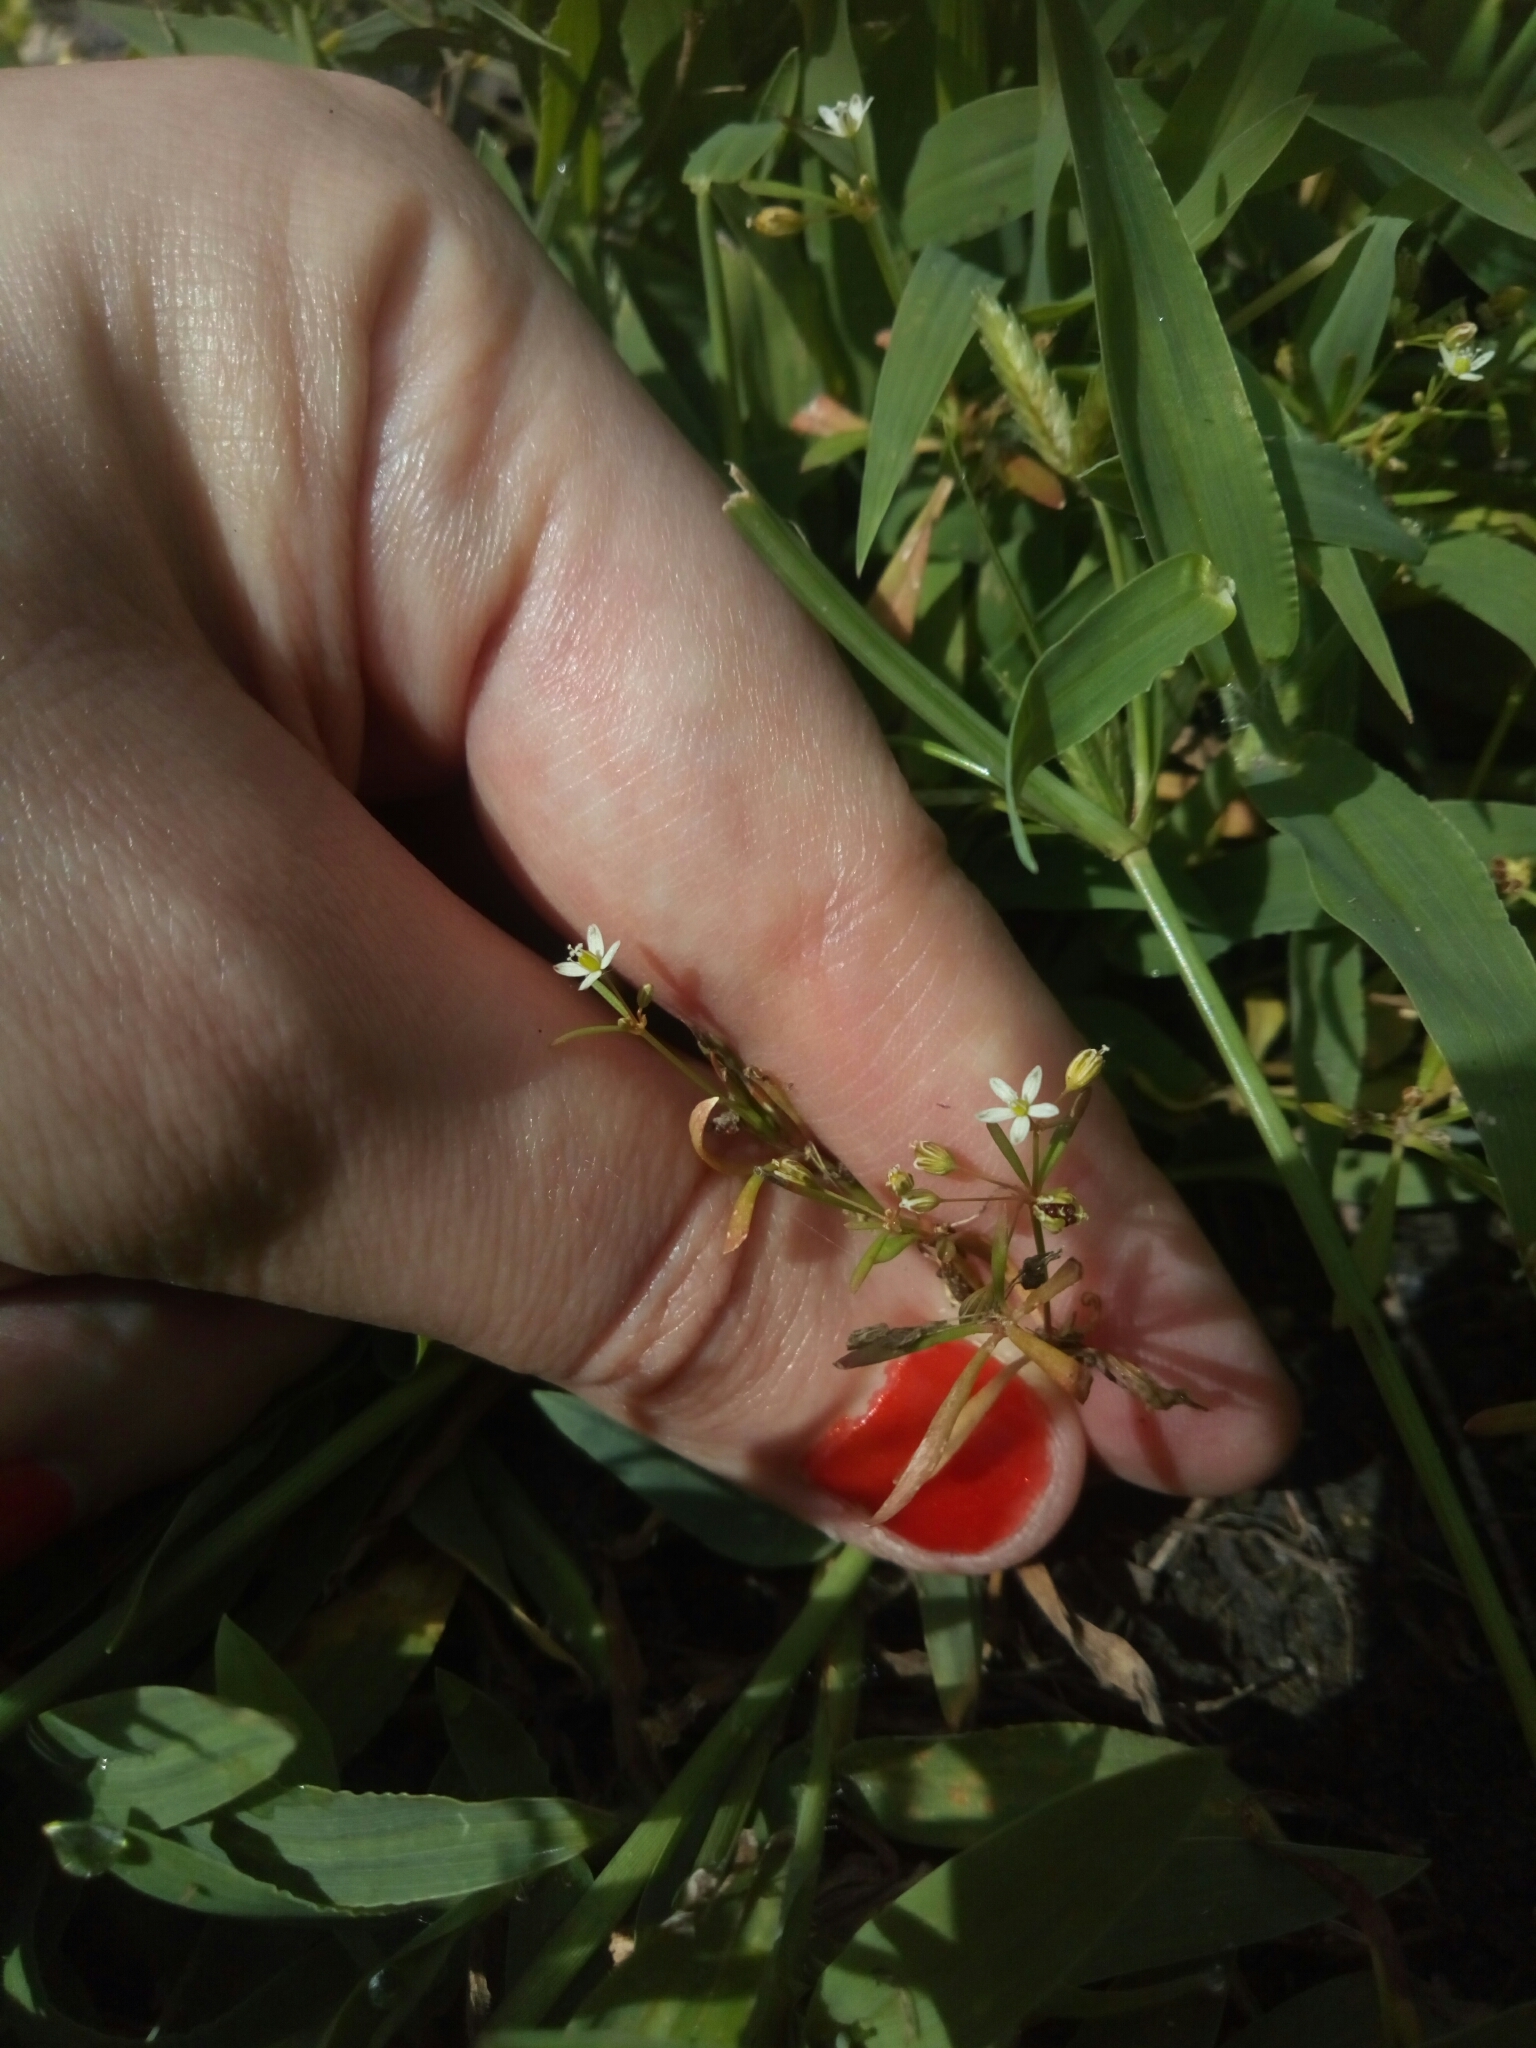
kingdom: Plantae
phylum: Tracheophyta
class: Magnoliopsida
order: Caryophyllales
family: Molluginaceae
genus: Mollugo
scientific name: Mollugo verticillata
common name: Green carpetweed
